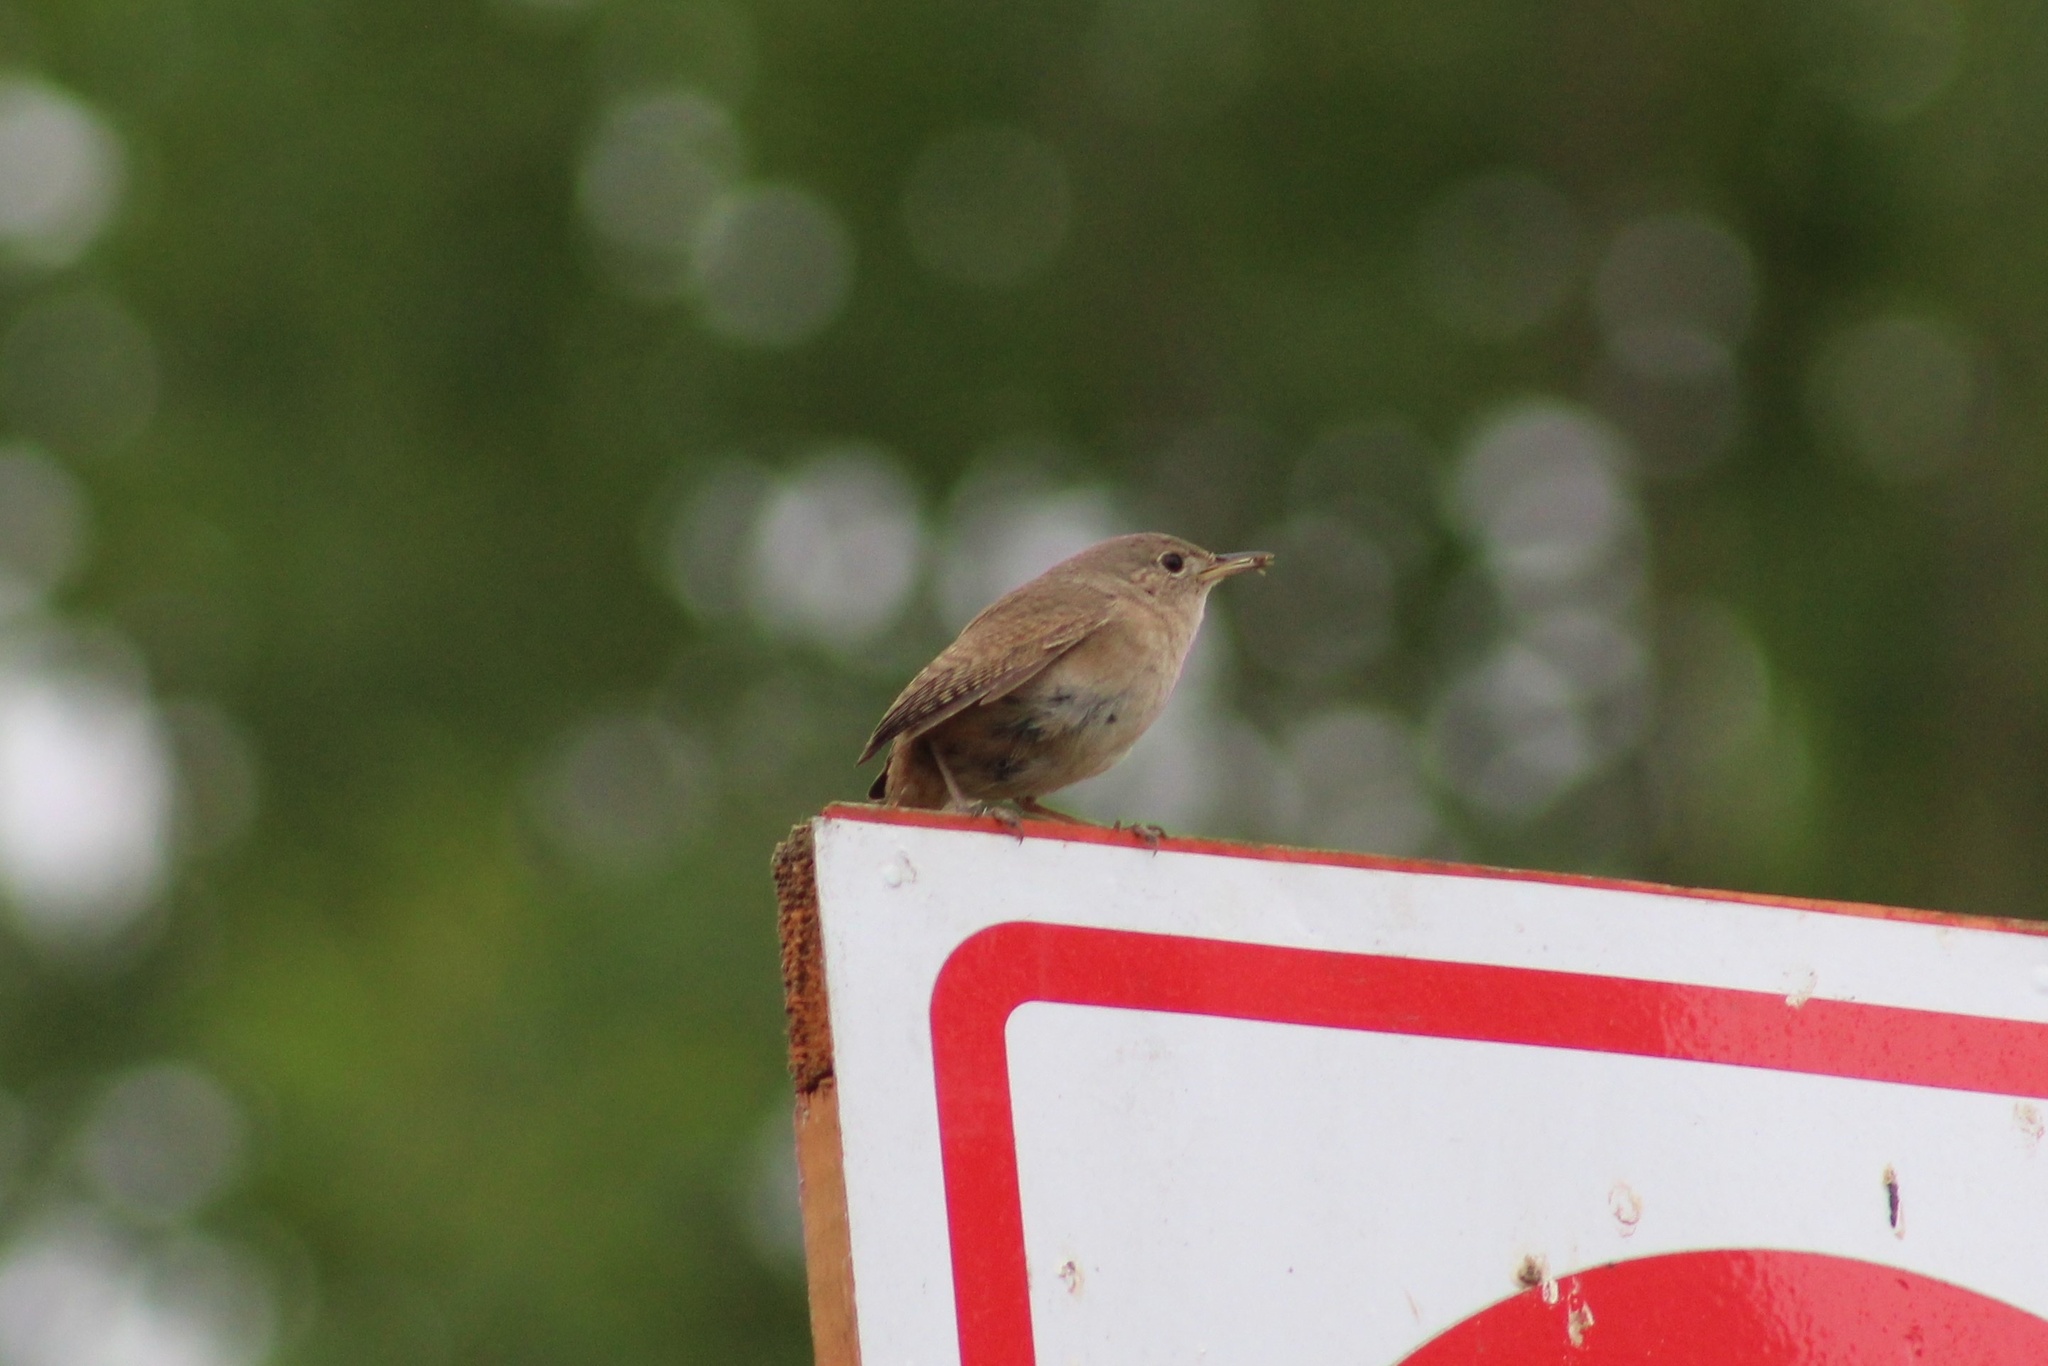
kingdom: Animalia
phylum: Chordata
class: Aves
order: Passeriformes
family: Troglodytidae
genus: Troglodytes
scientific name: Troglodytes aedon
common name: House wren
